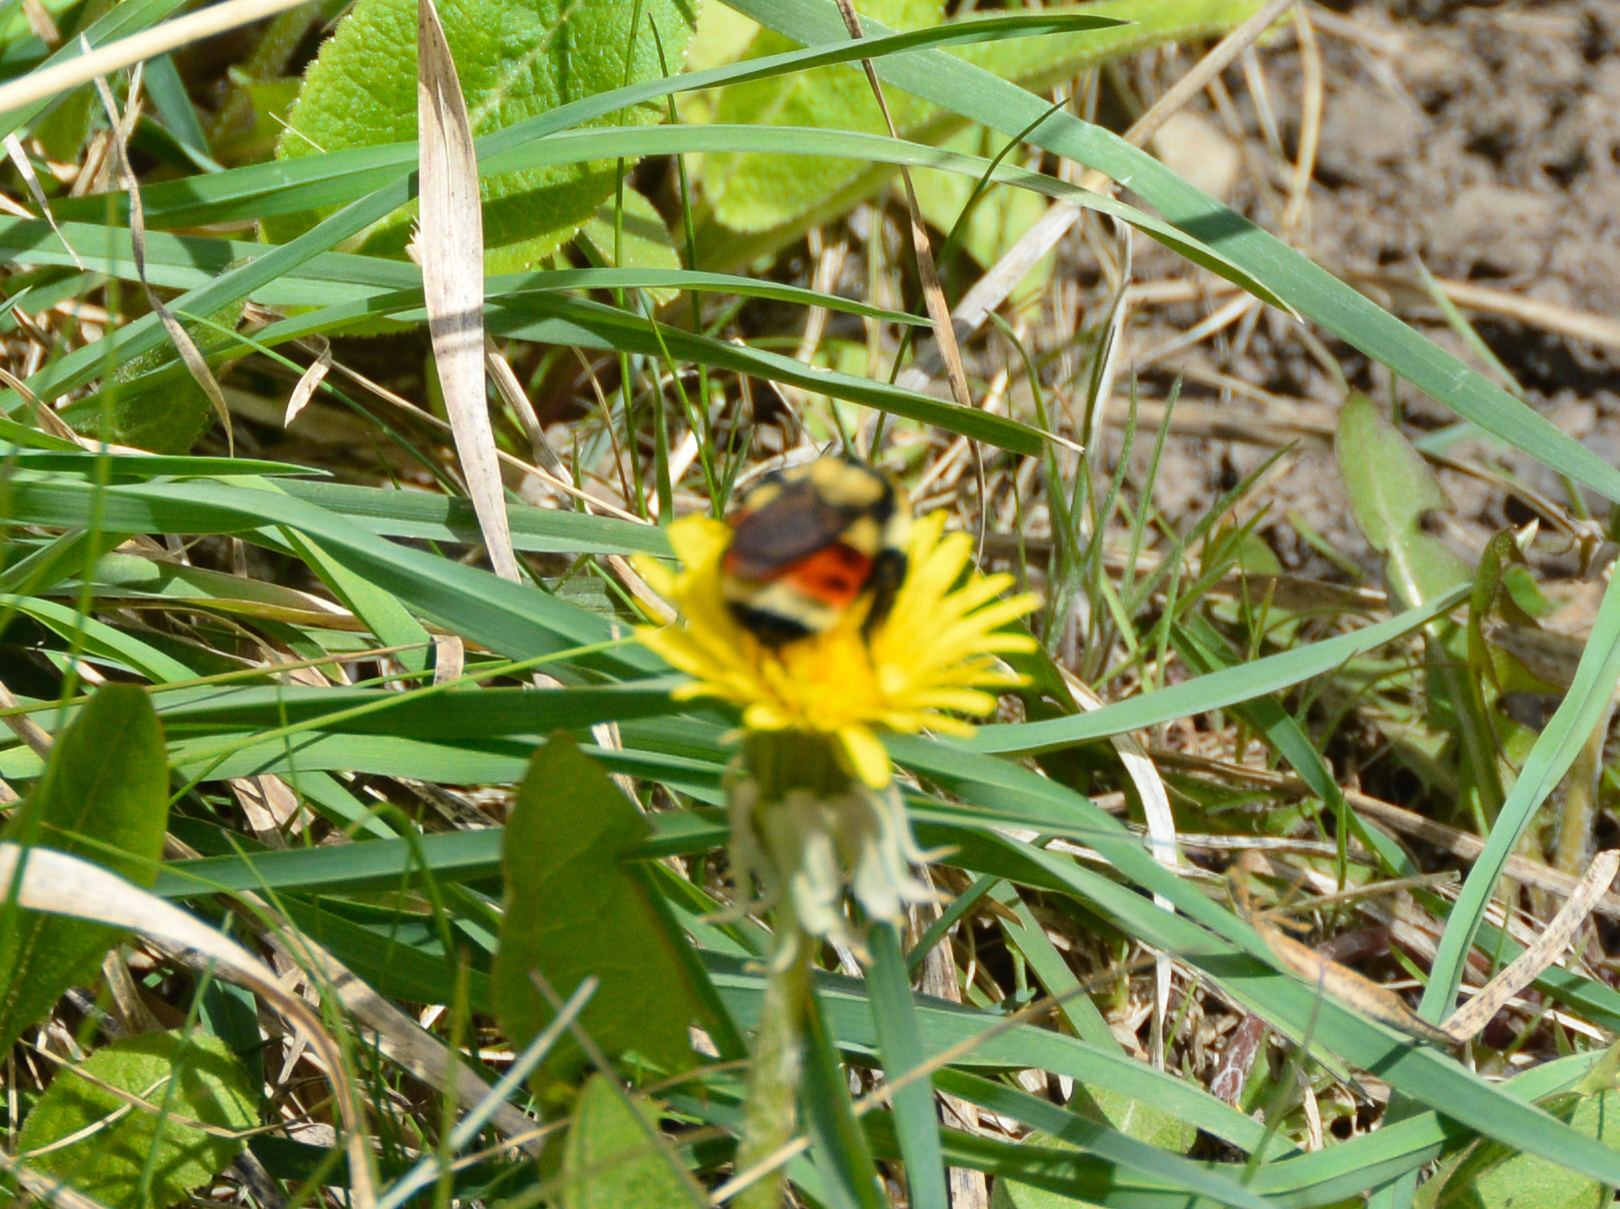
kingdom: Animalia
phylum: Arthropoda
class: Insecta
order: Hymenoptera
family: Apidae
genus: Bombus
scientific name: Bombus huntii
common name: Hunt bumble bee
